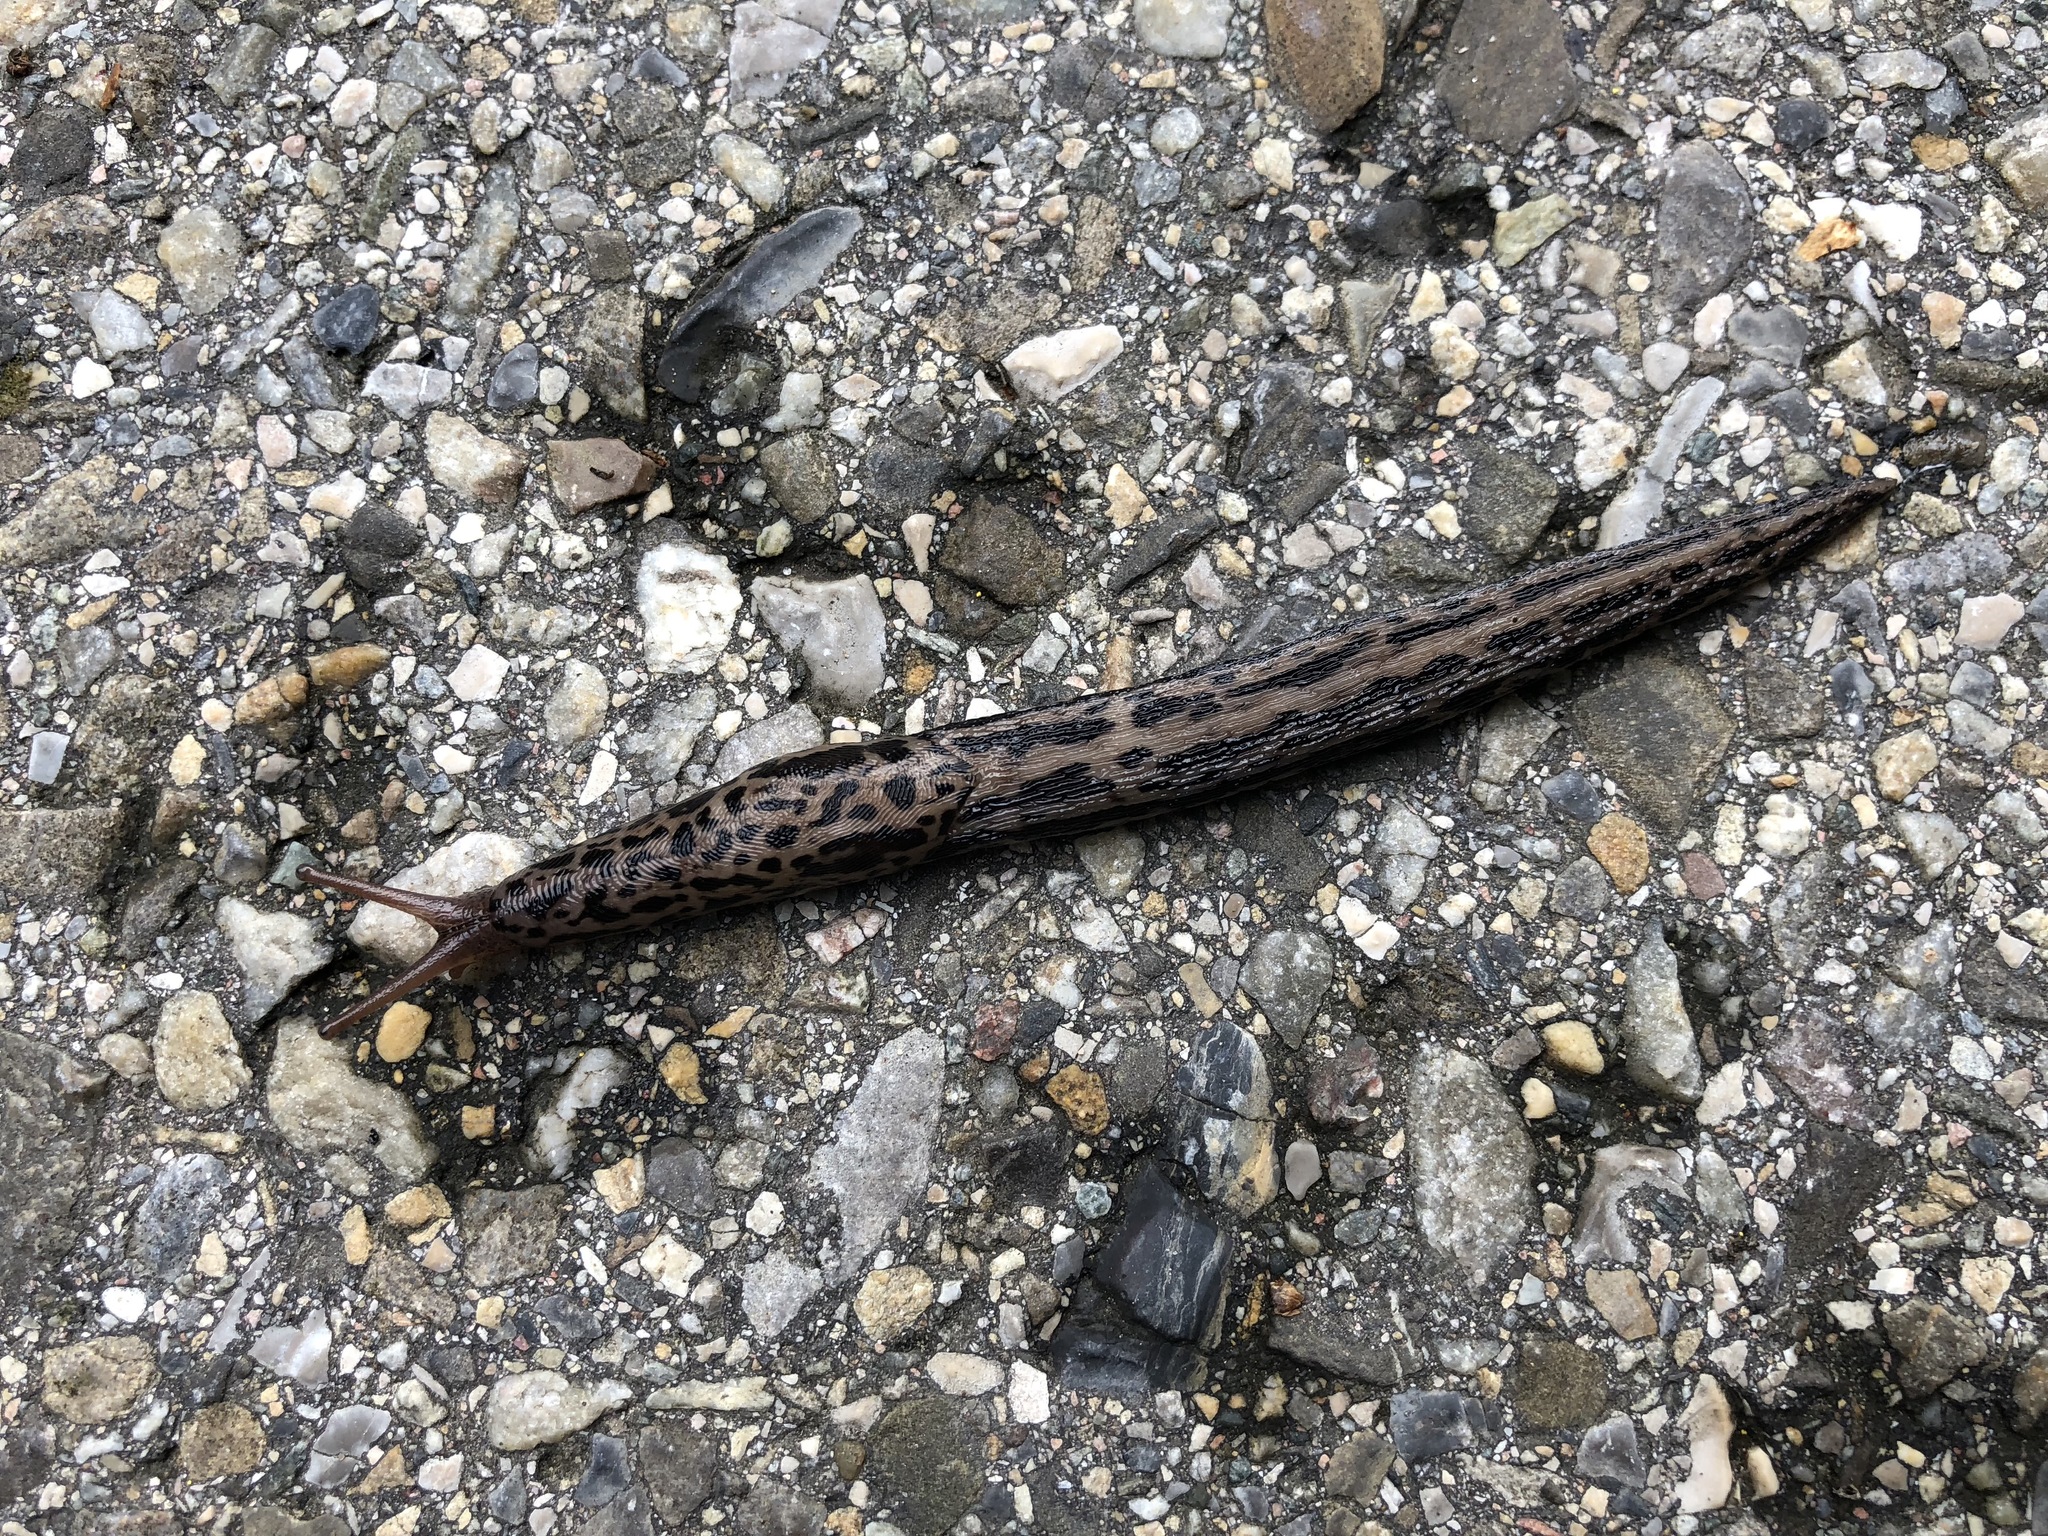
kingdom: Animalia
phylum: Mollusca
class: Gastropoda
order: Stylommatophora
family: Limacidae
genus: Limax
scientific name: Limax maximus
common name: Great grey slug
